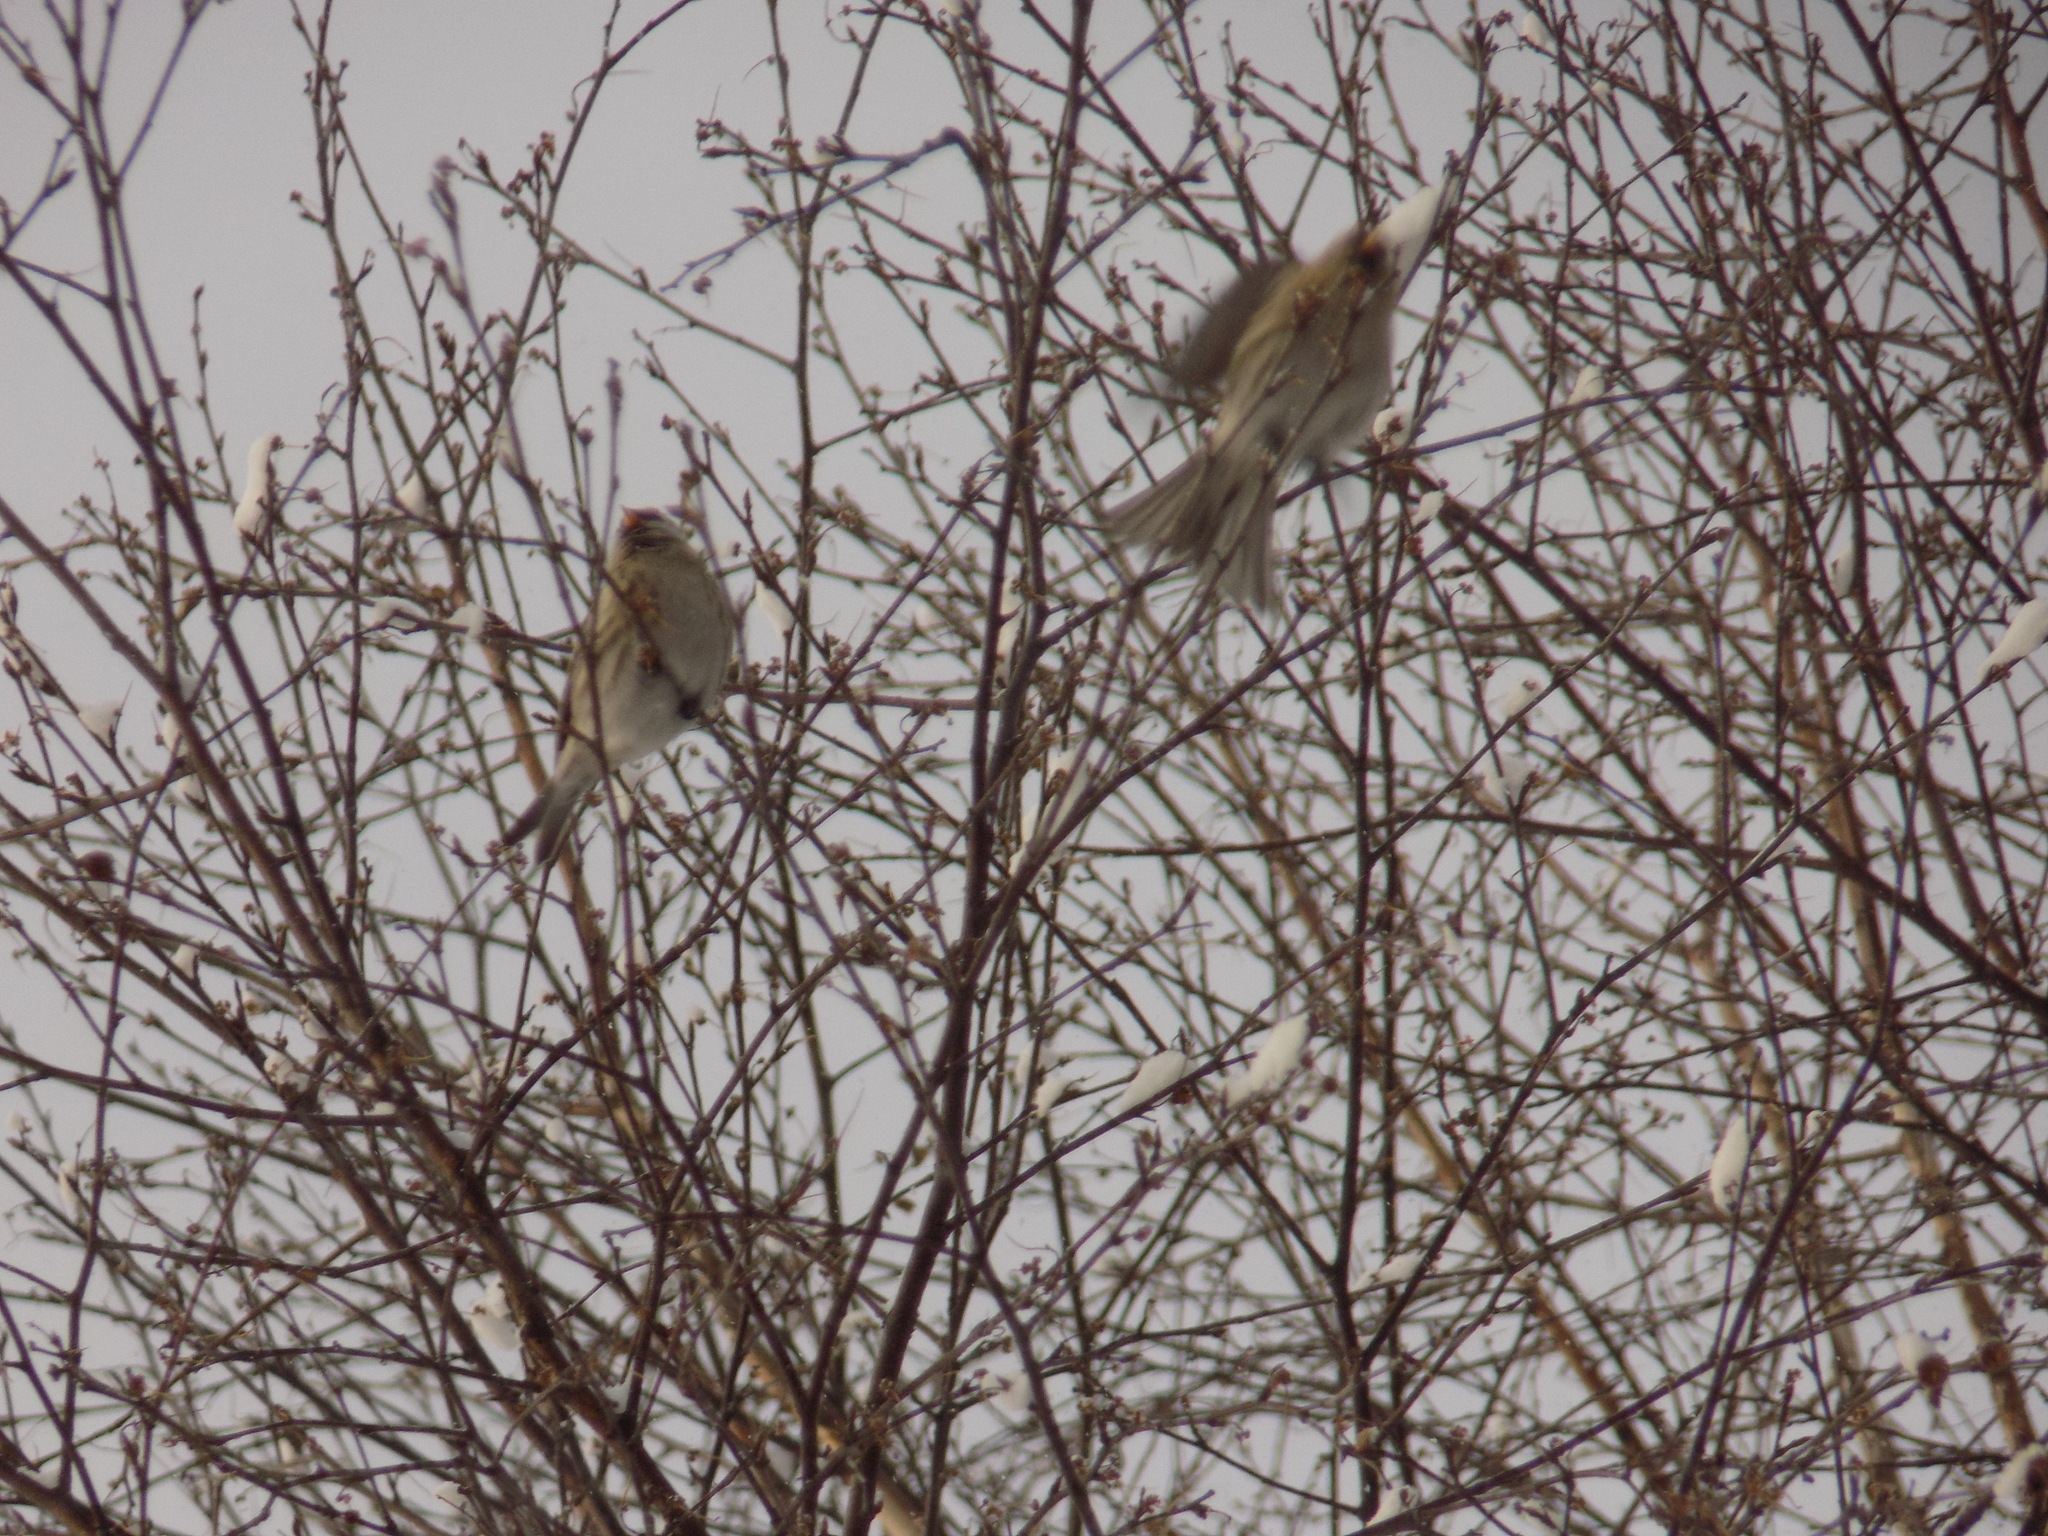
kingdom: Animalia
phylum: Chordata
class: Aves
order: Passeriformes
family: Fringillidae
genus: Acanthis
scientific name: Acanthis flammea
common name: Common redpoll
